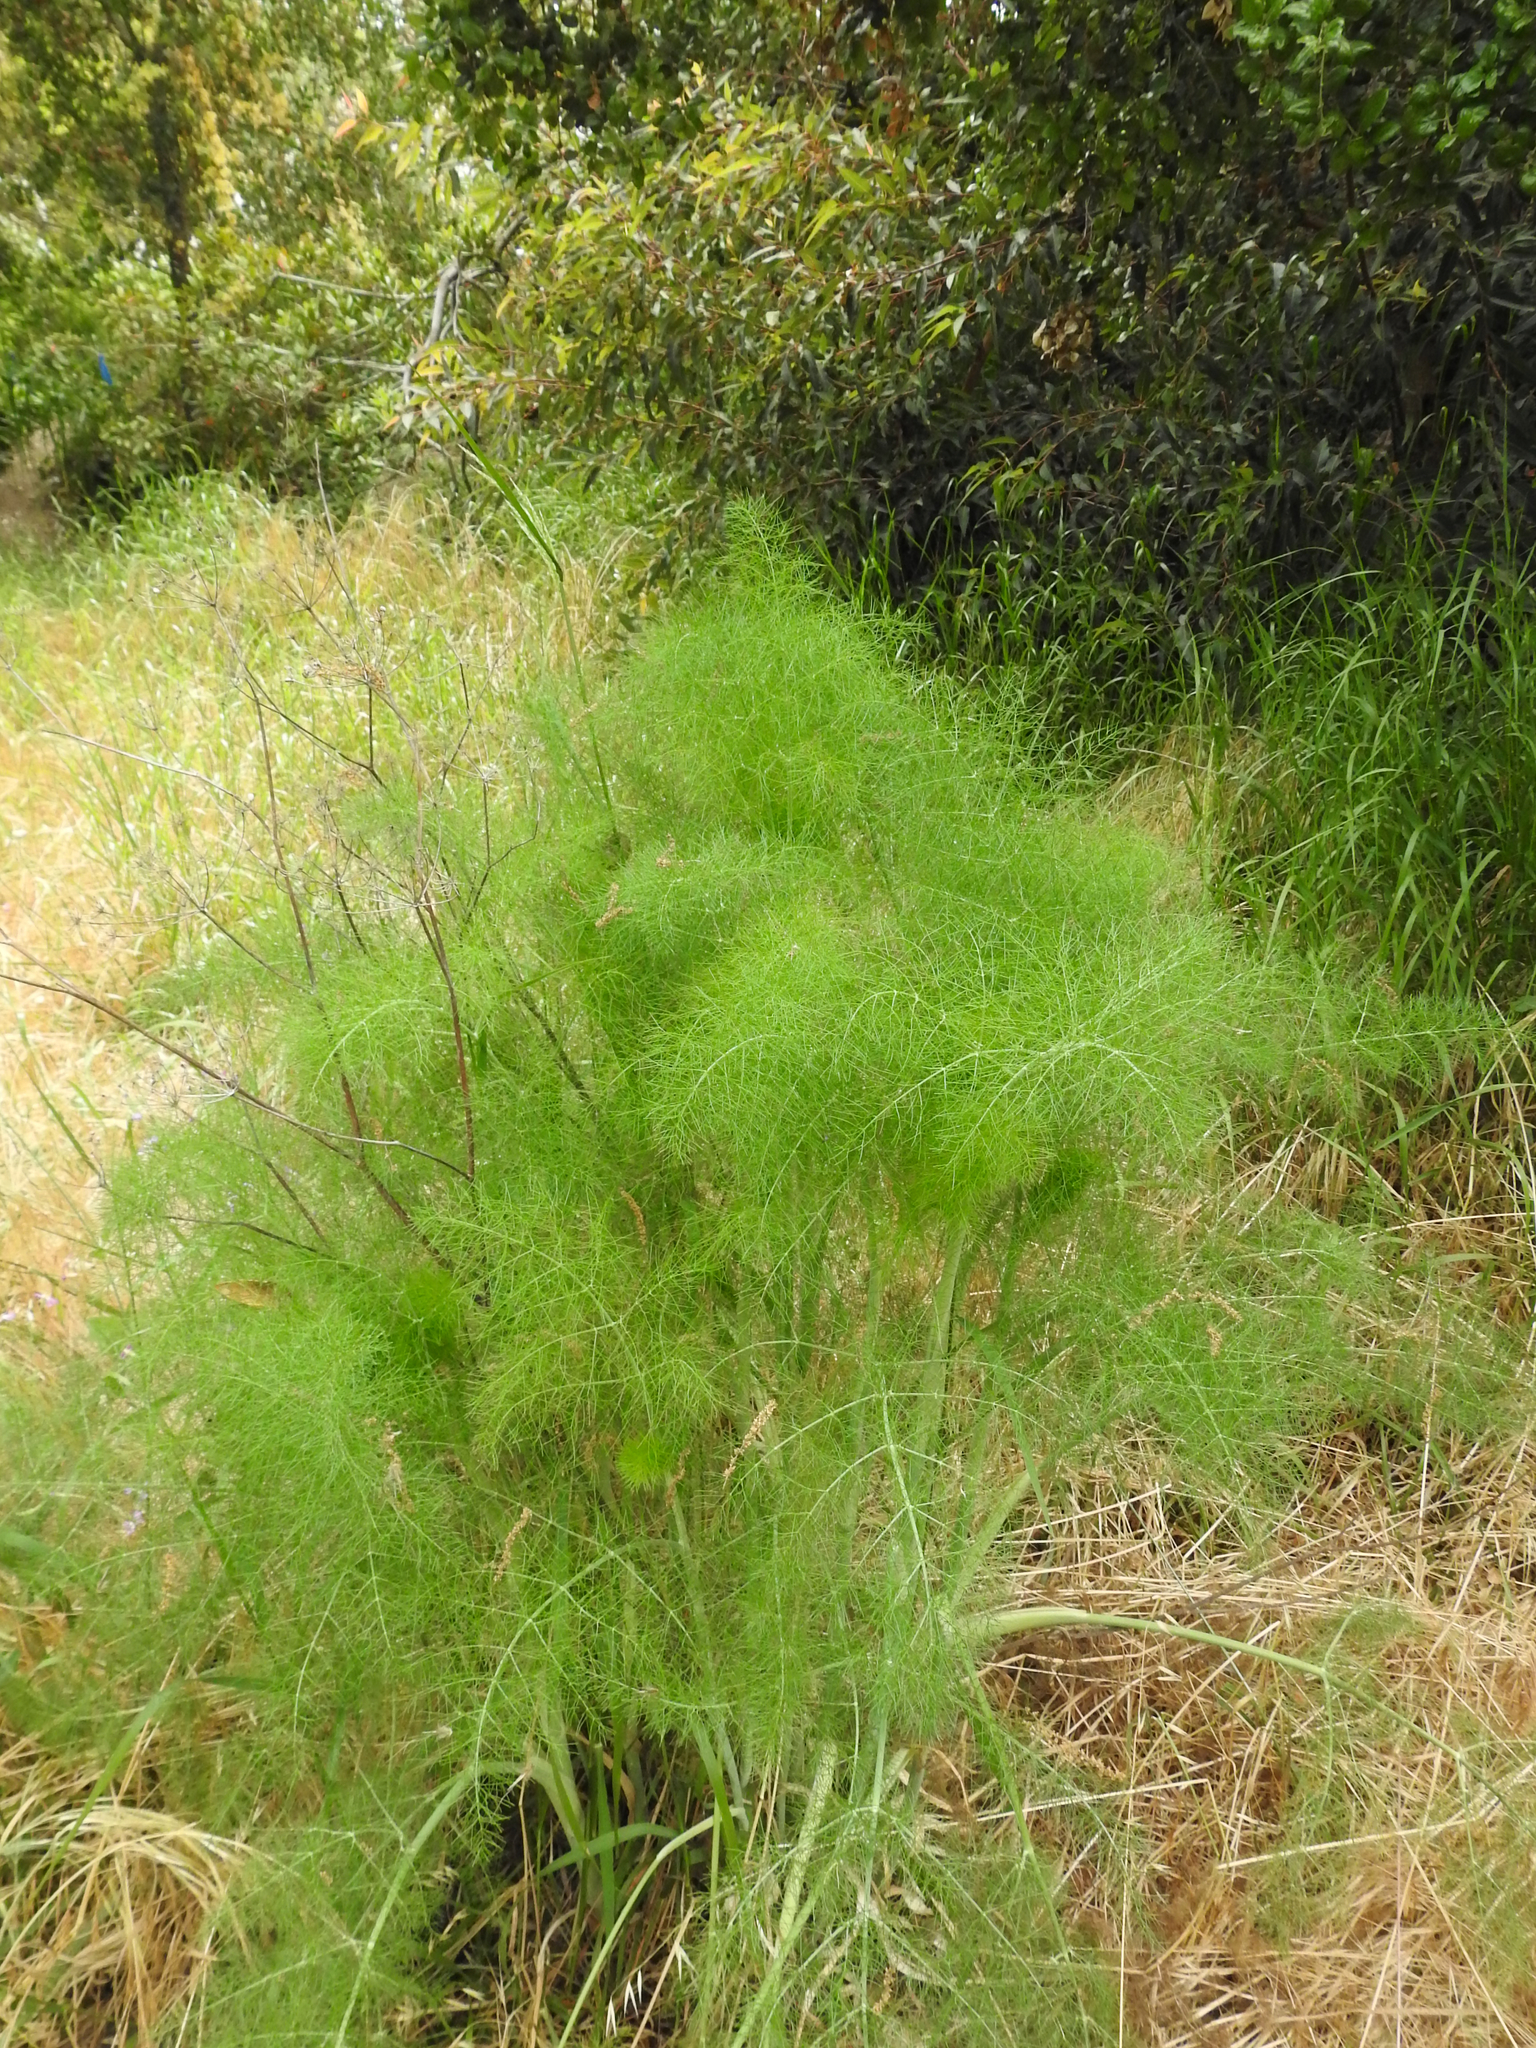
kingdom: Plantae
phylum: Tracheophyta
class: Magnoliopsida
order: Apiales
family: Apiaceae
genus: Foeniculum
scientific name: Foeniculum vulgare
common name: Fennel
